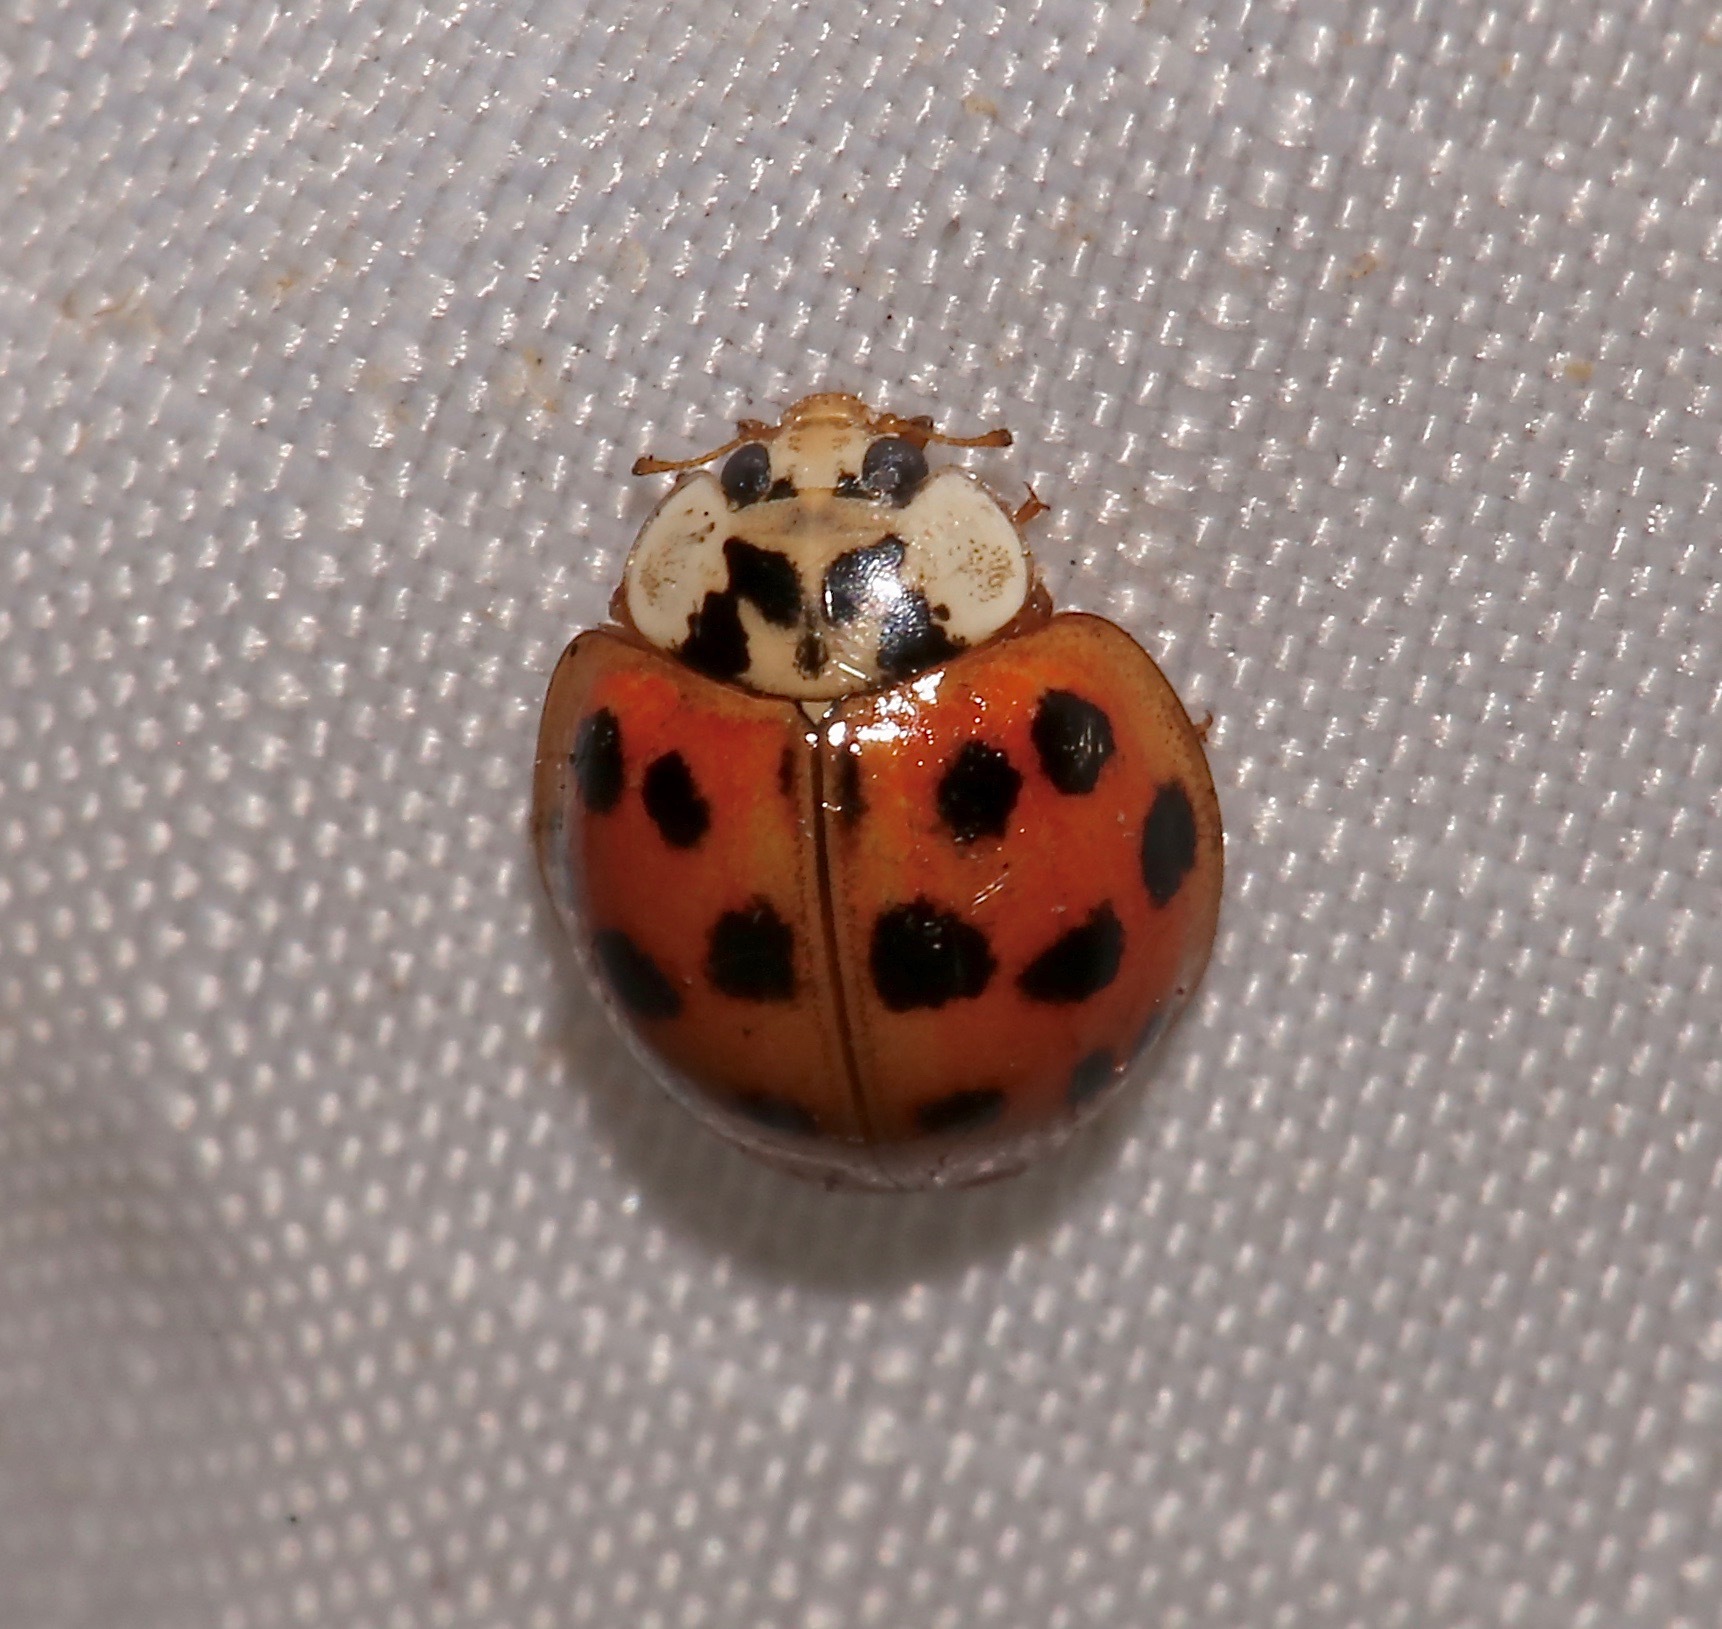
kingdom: Animalia
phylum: Arthropoda
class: Insecta
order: Coleoptera
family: Coccinellidae
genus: Harmonia
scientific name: Harmonia axyridis
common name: Harlequin ladybird
